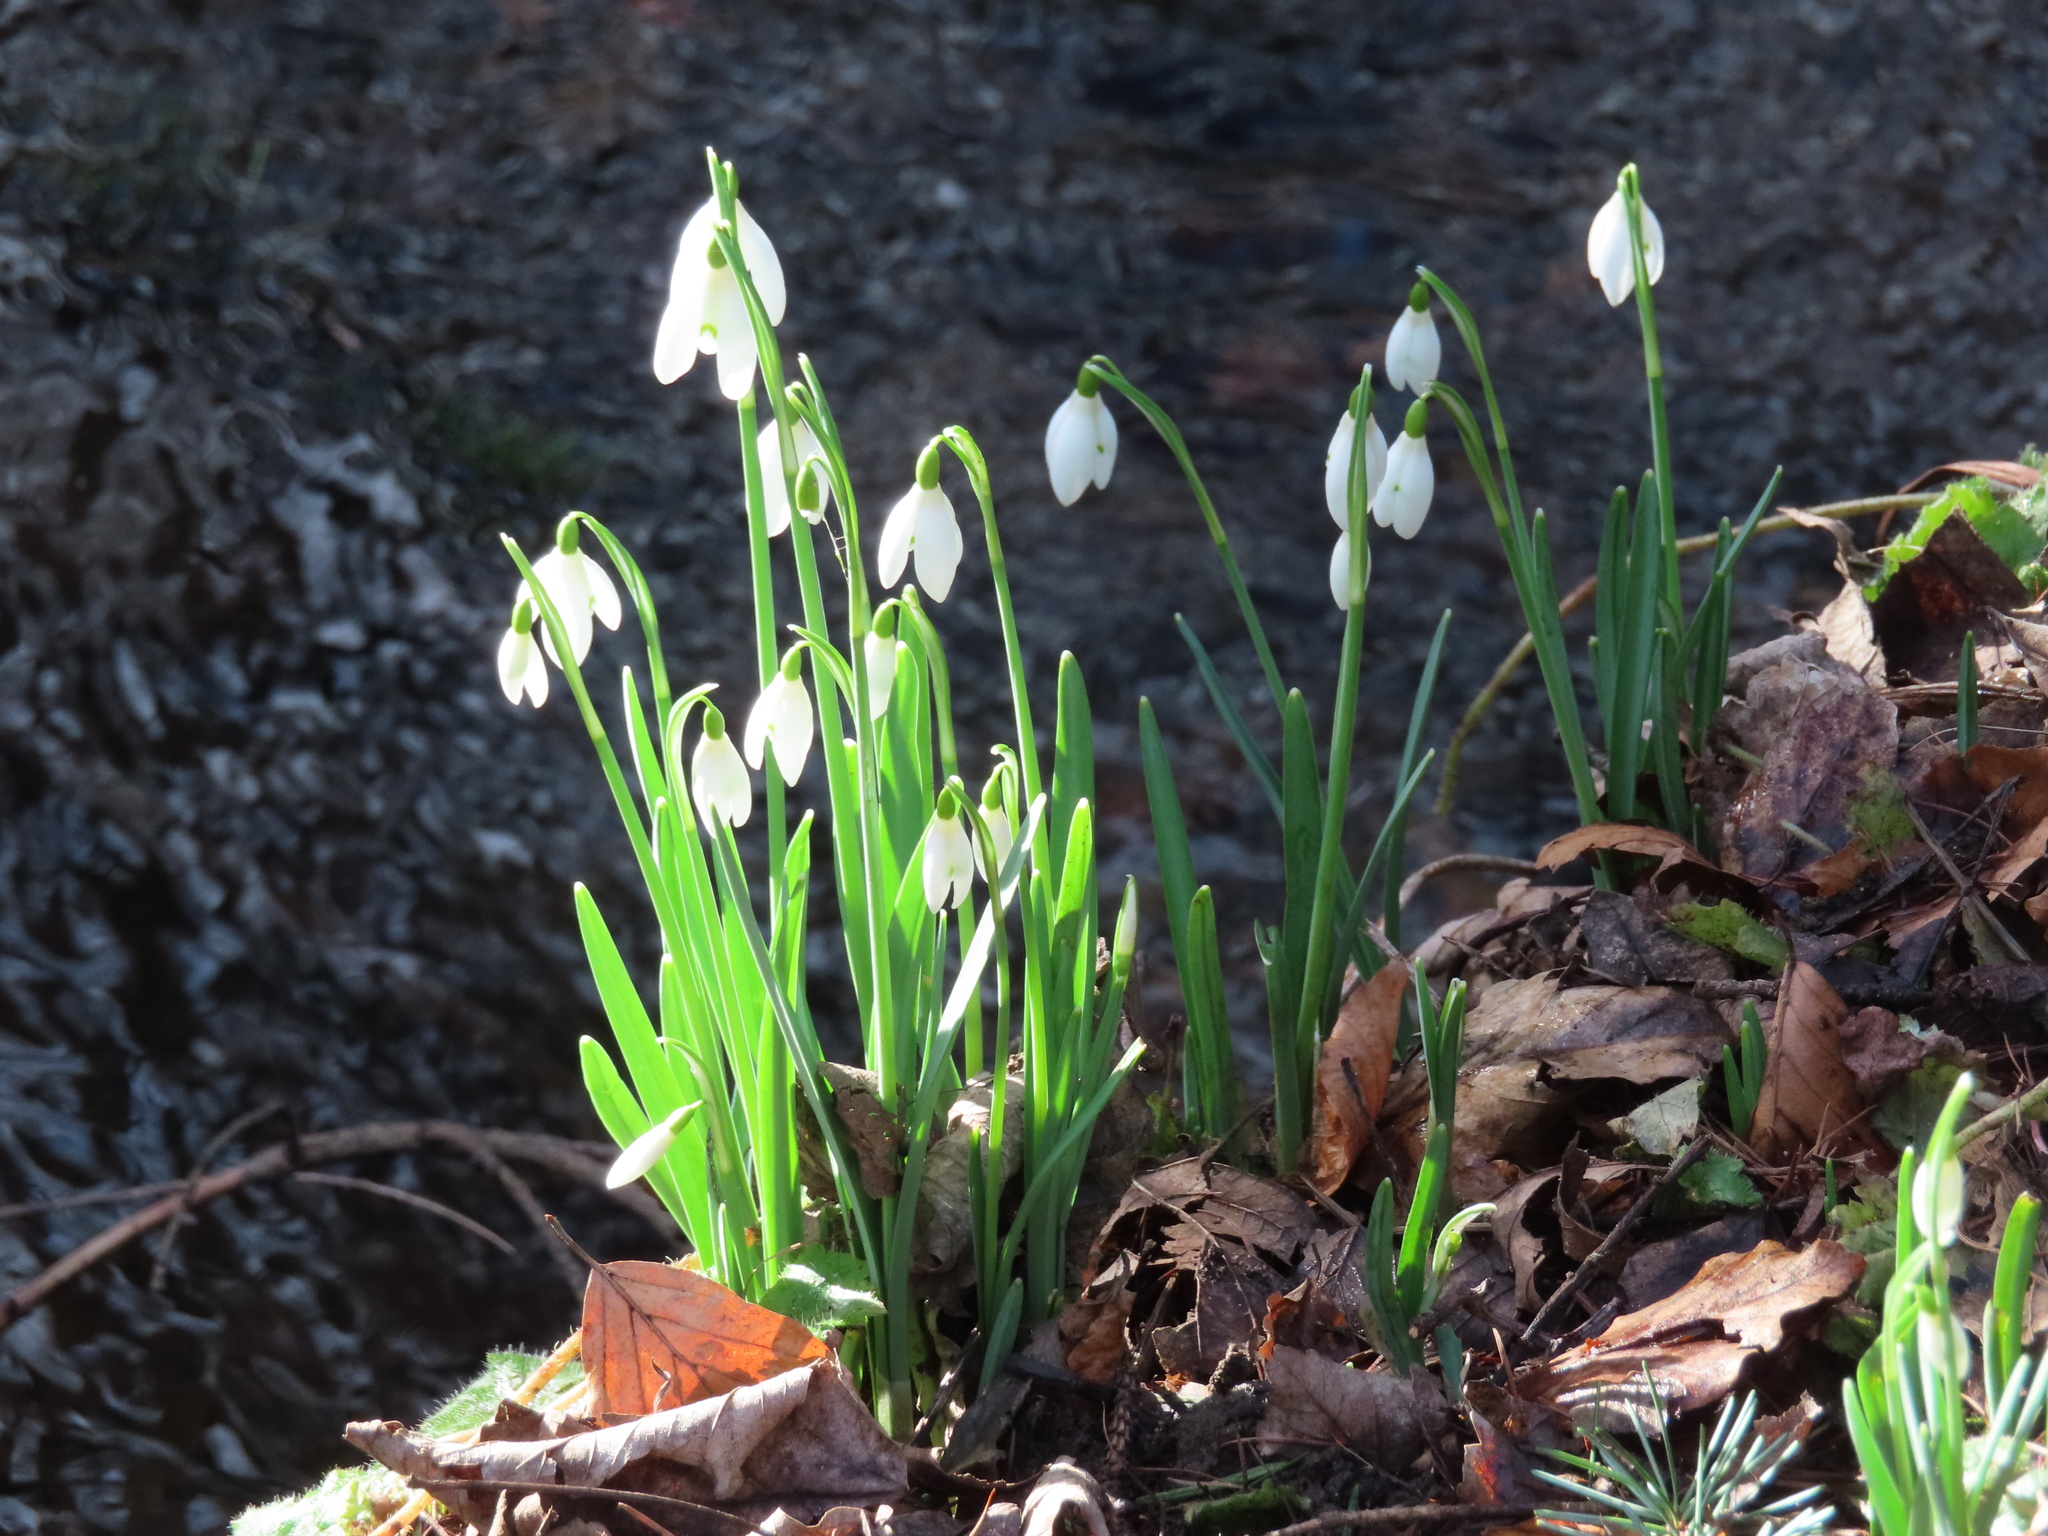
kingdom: Plantae
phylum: Tracheophyta
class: Liliopsida
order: Asparagales
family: Amaryllidaceae
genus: Galanthus
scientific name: Galanthus nivalis
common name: Snowdrop
